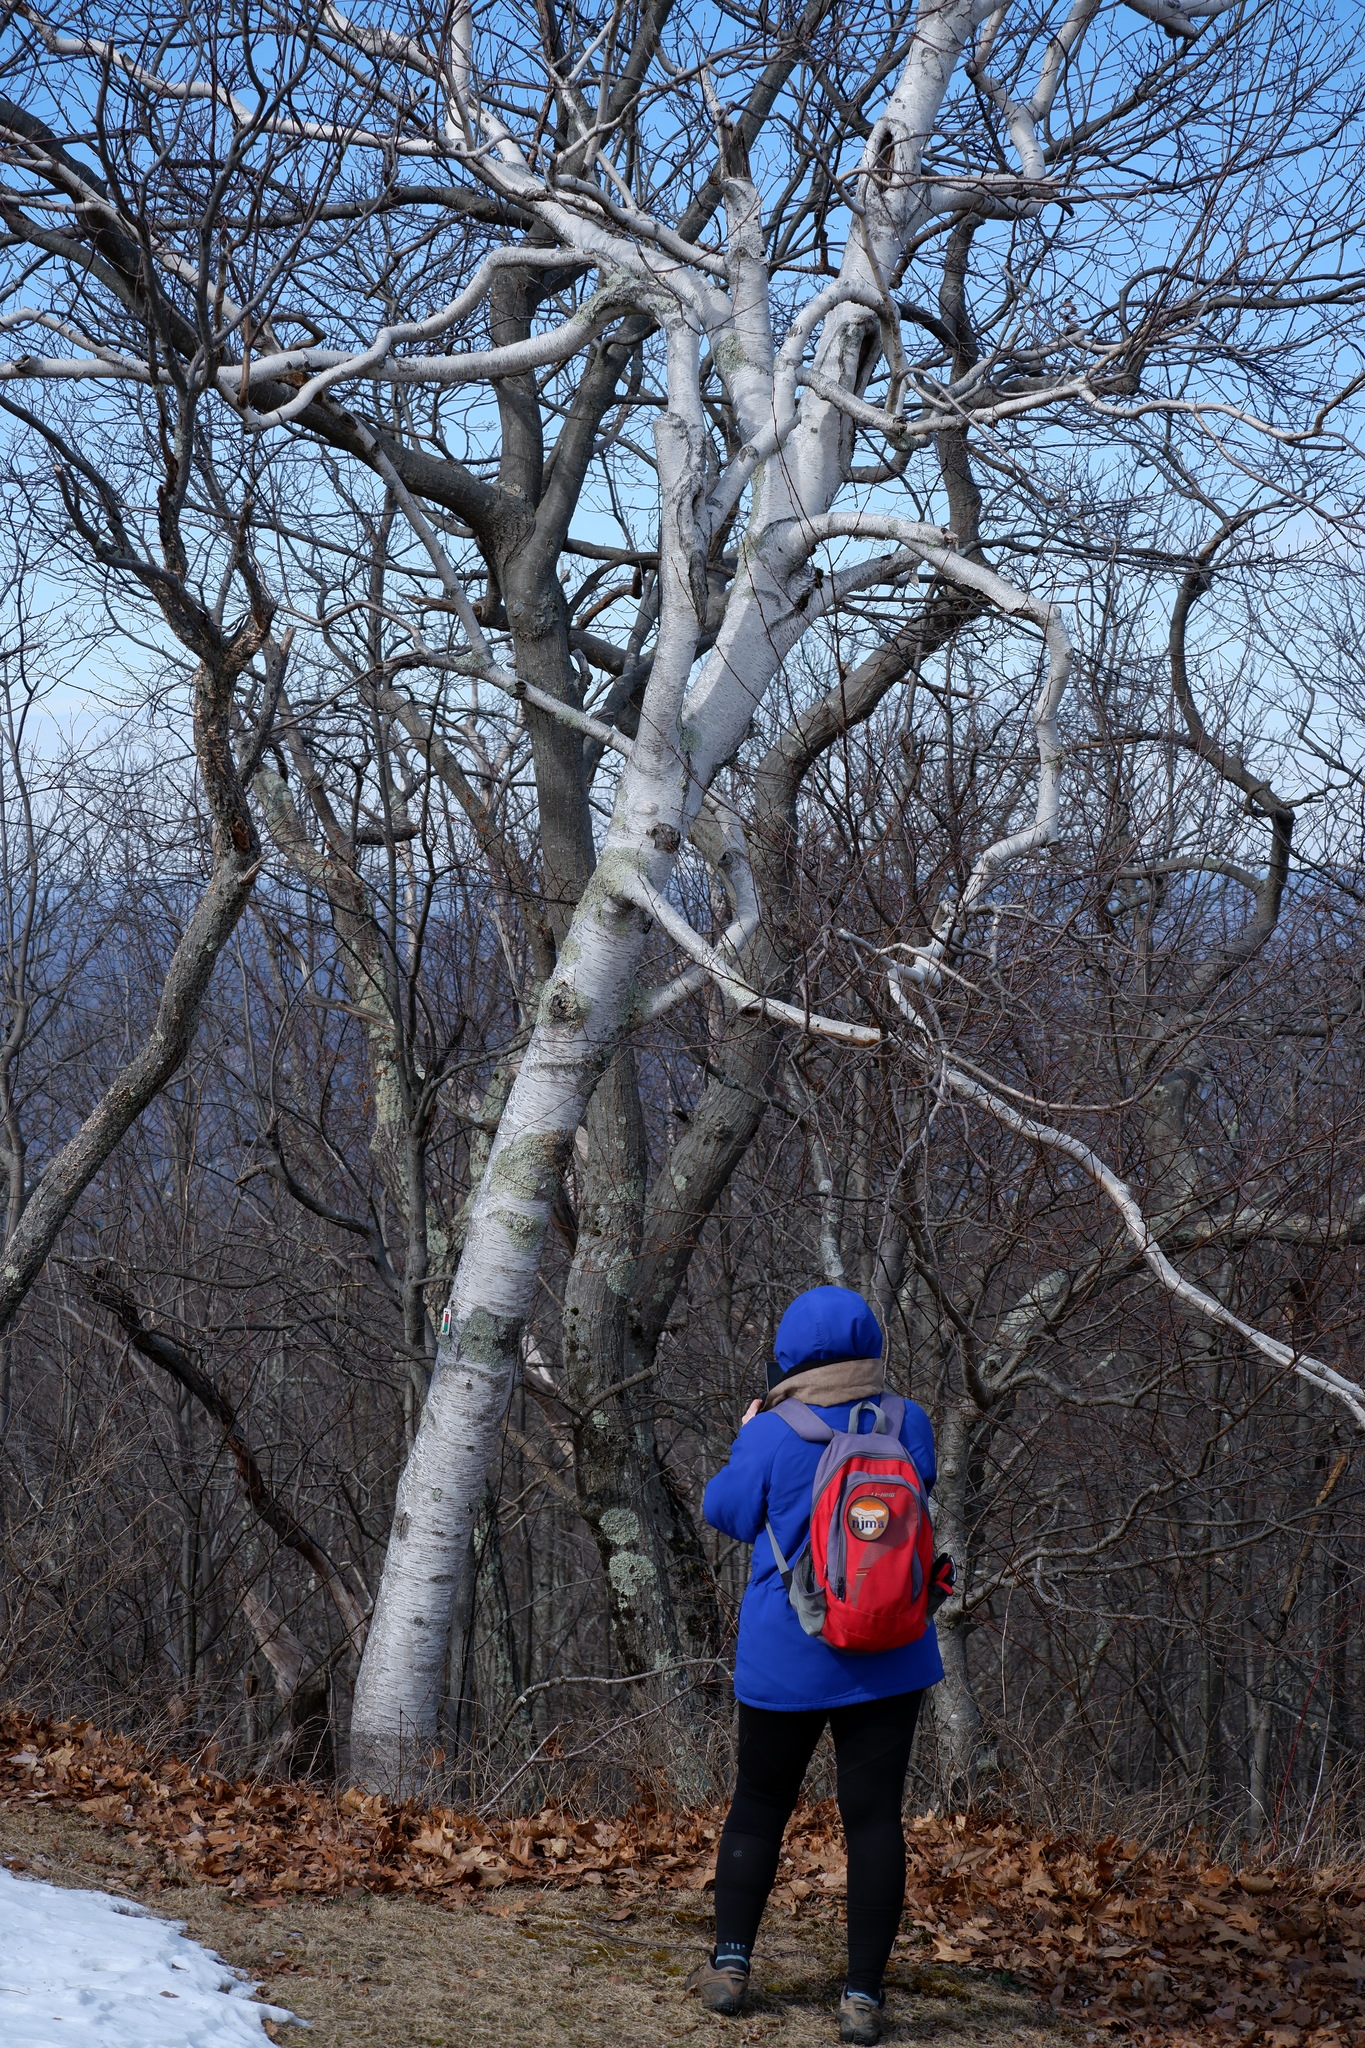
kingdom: Plantae
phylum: Tracheophyta
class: Magnoliopsida
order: Fagales
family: Betulaceae
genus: Betula
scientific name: Betula papyrifera
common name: Paper birch
